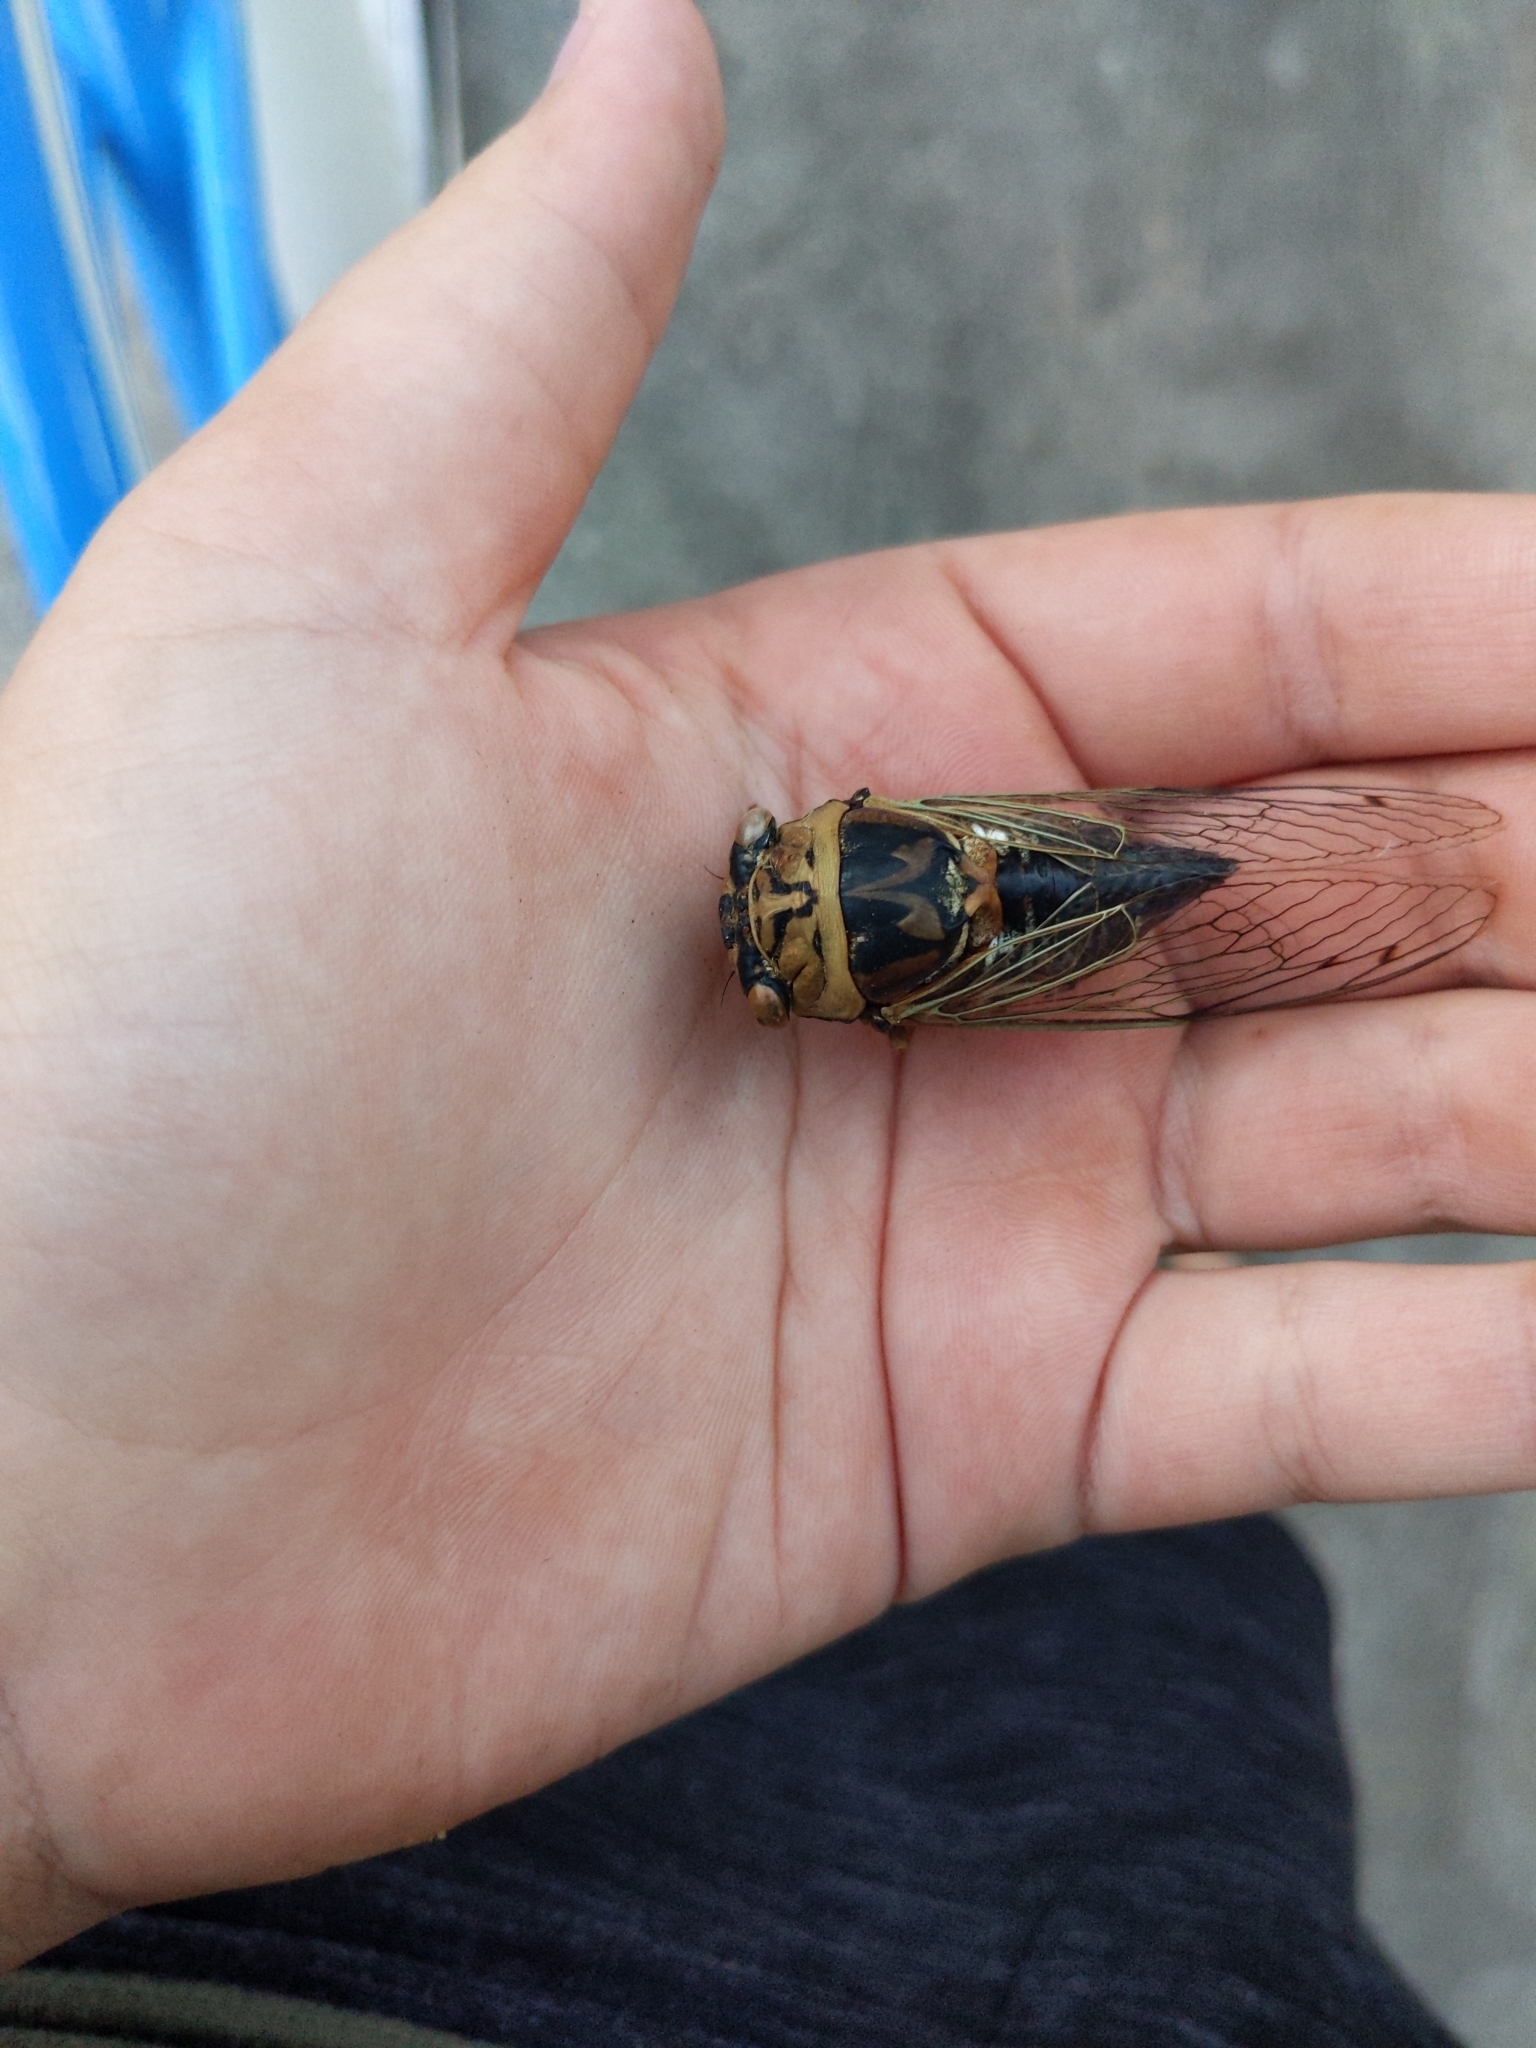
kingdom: Animalia
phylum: Arthropoda
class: Insecta
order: Hemiptera
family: Cicadidae
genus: Megatibicen
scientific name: Megatibicen resh
